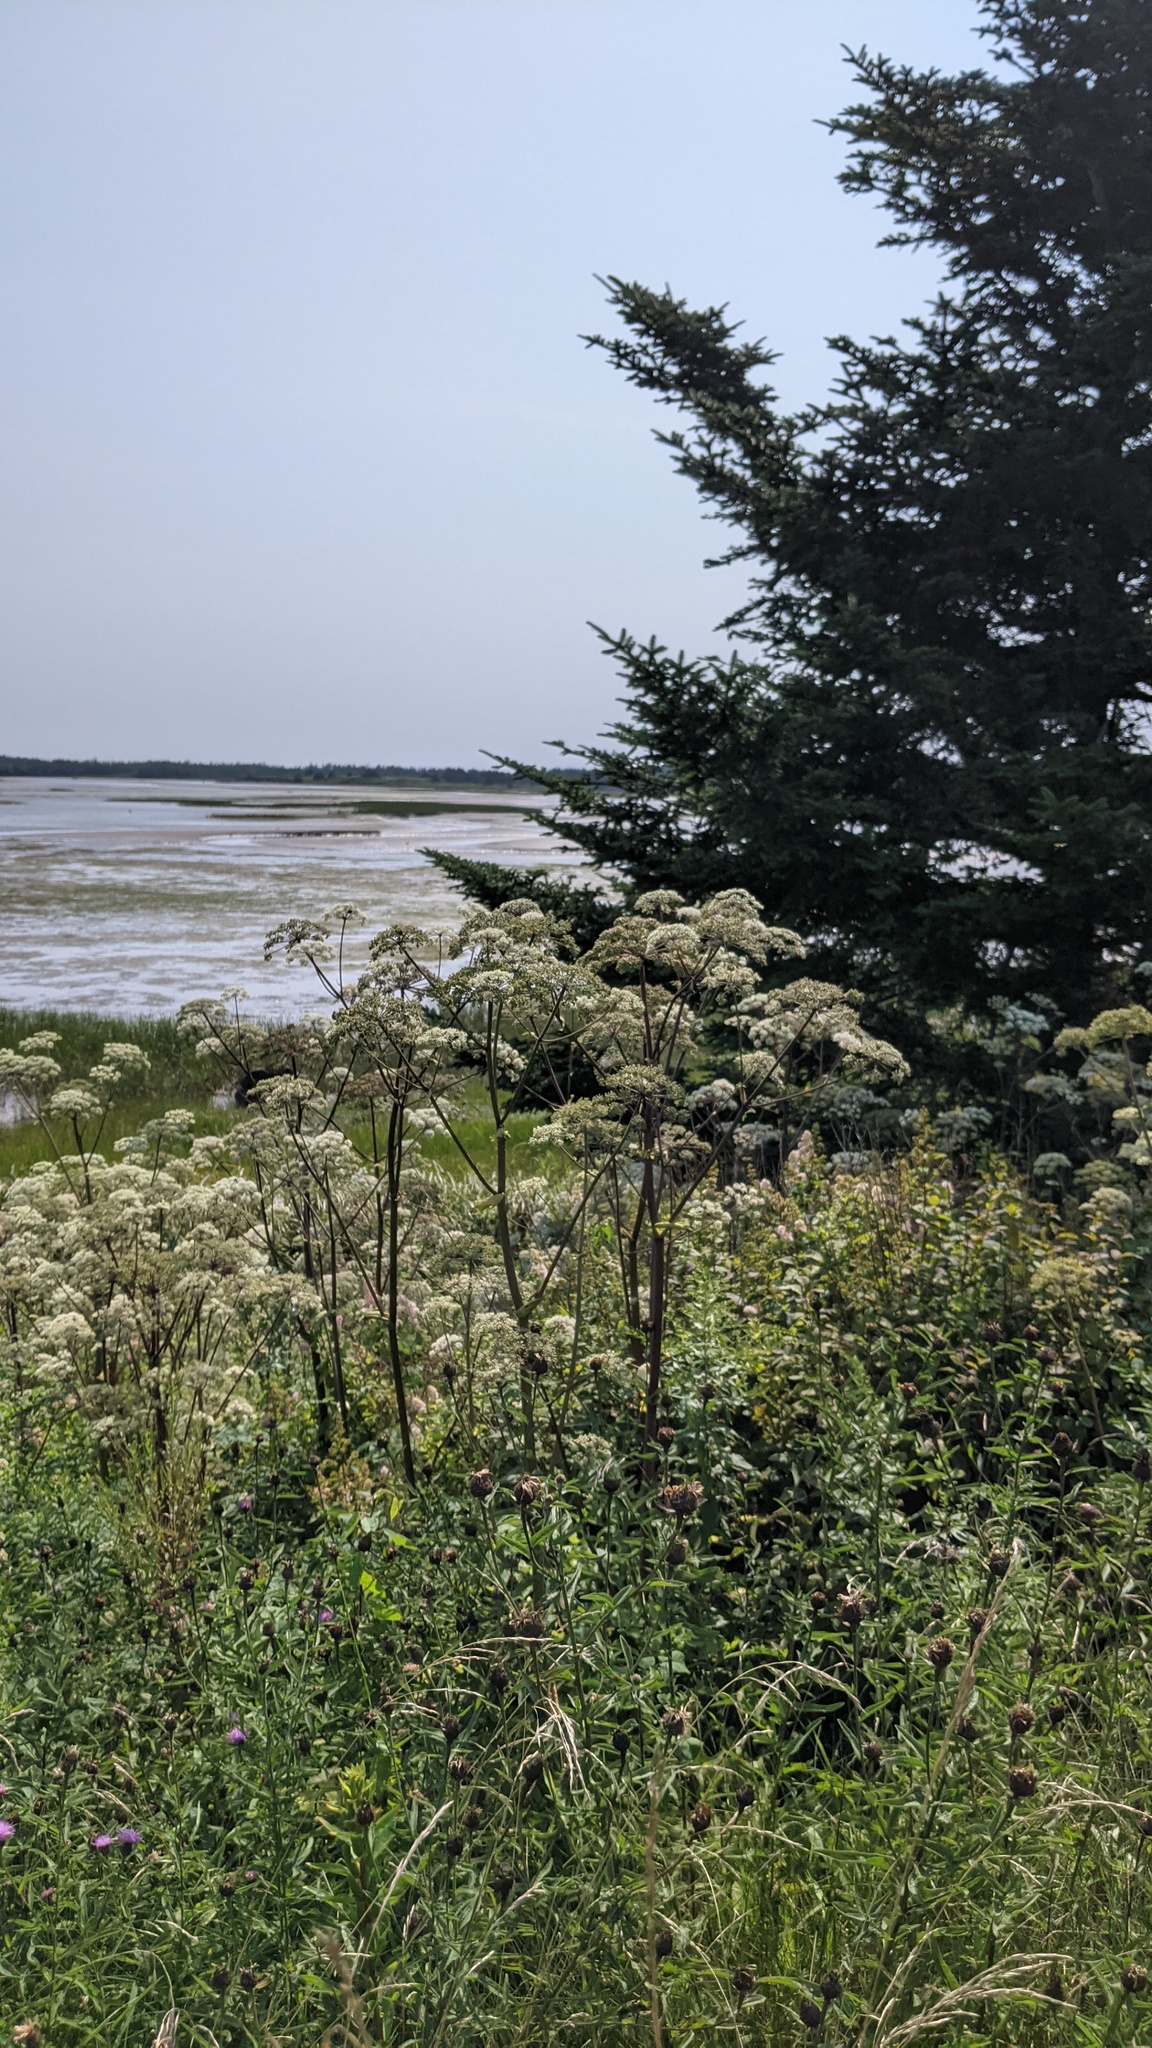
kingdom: Plantae
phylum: Tracheophyta
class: Magnoliopsida
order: Apiales
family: Apiaceae
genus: Angelica
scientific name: Angelica sylvestris
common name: Wild angelica
